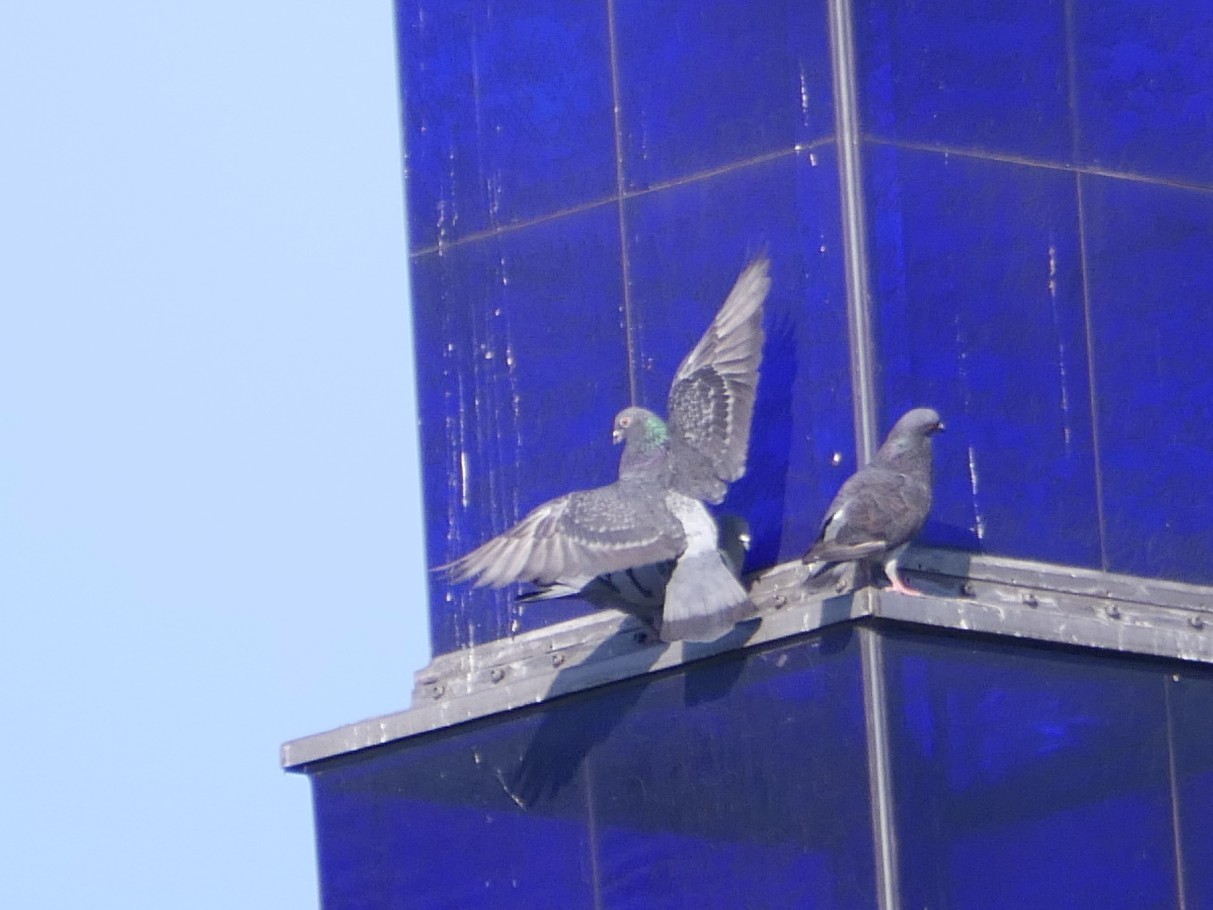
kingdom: Animalia
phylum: Chordata
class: Aves
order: Columbiformes
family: Columbidae
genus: Columba
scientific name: Columba livia
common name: Rock pigeon
